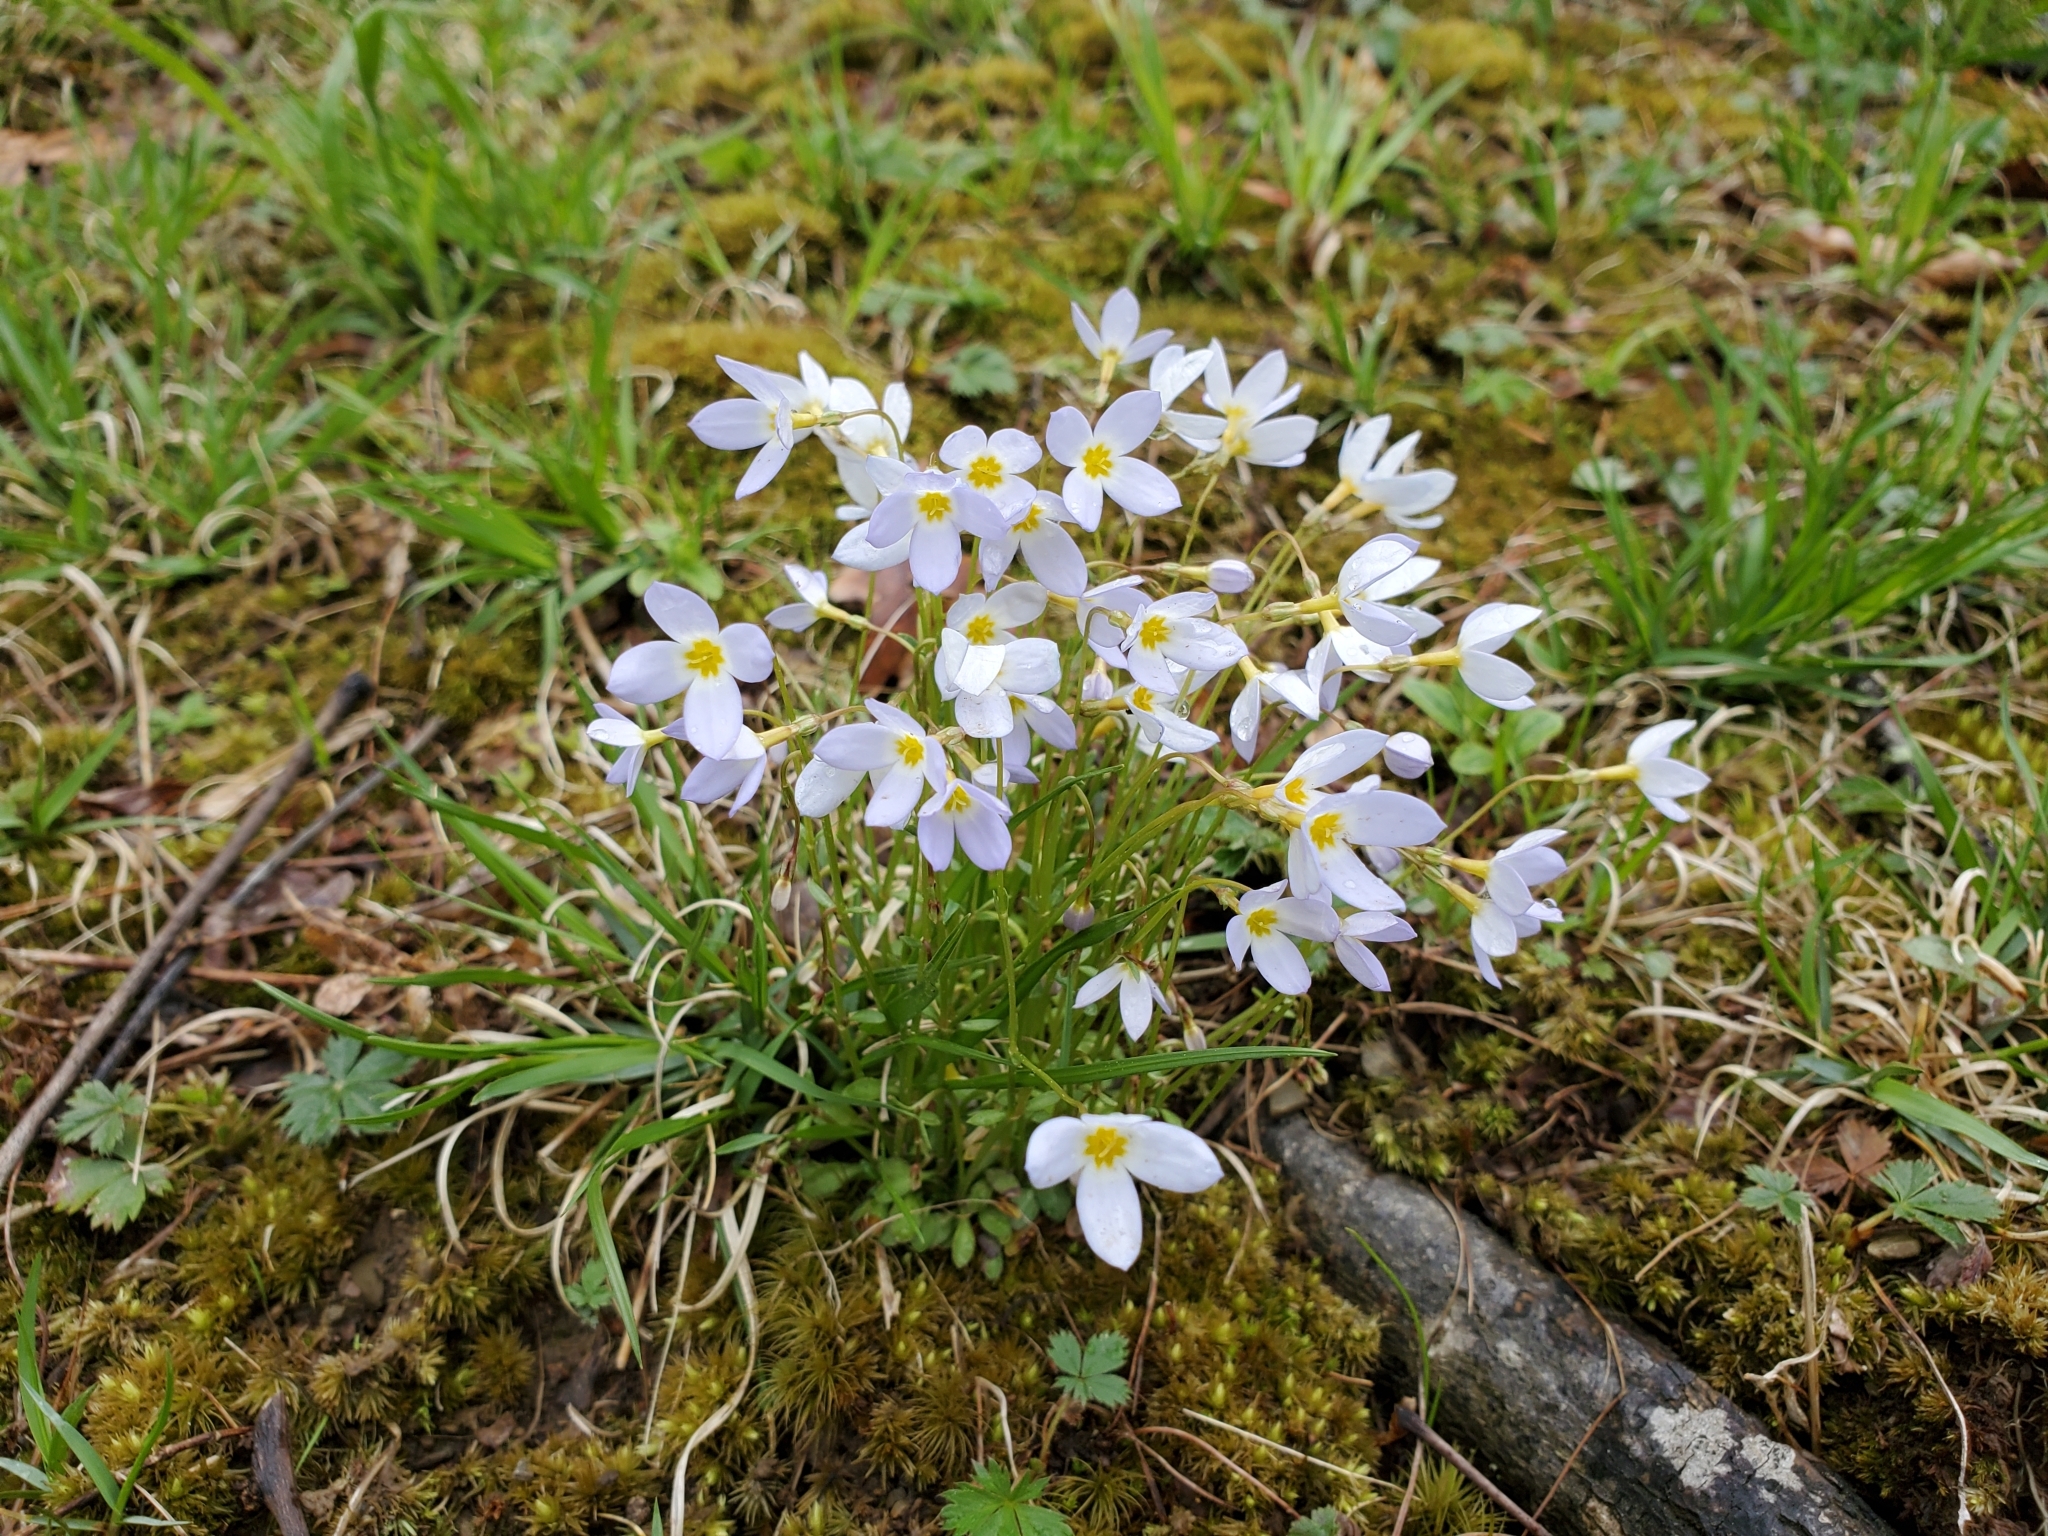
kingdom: Plantae
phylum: Tracheophyta
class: Magnoliopsida
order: Gentianales
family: Rubiaceae
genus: Houstonia
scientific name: Houstonia caerulea
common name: Bluets
